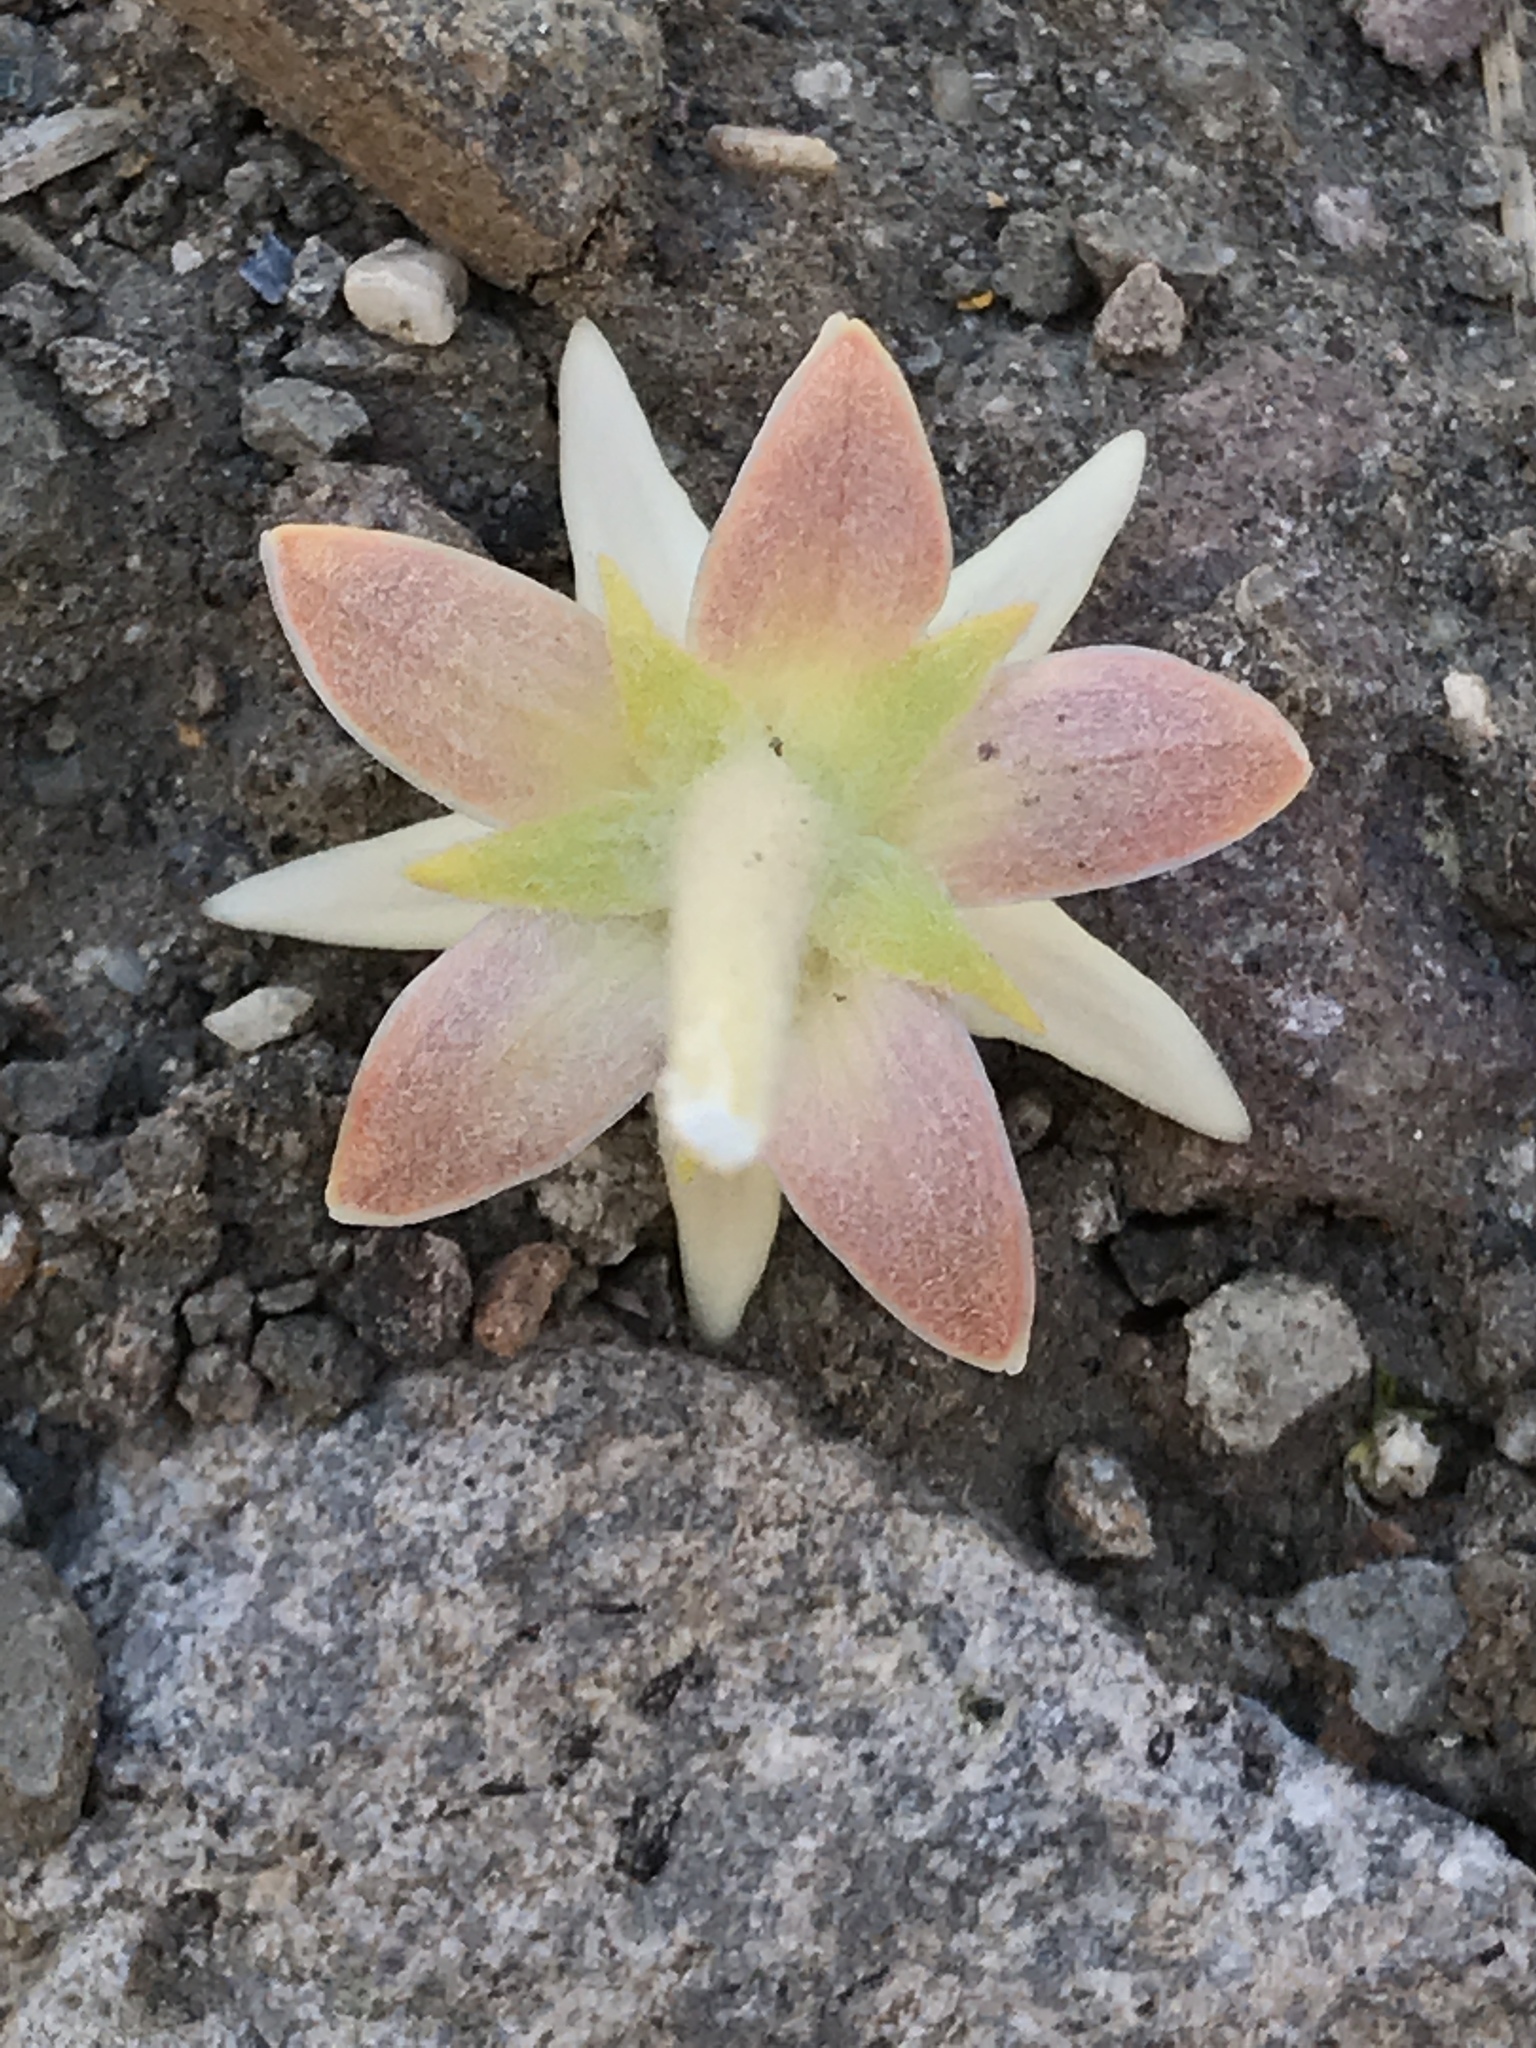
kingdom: Plantae
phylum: Tracheophyta
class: Magnoliopsida
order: Gentianales
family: Apocynaceae
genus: Asclepias
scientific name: Asclepias speciosa
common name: Showy milkweed
